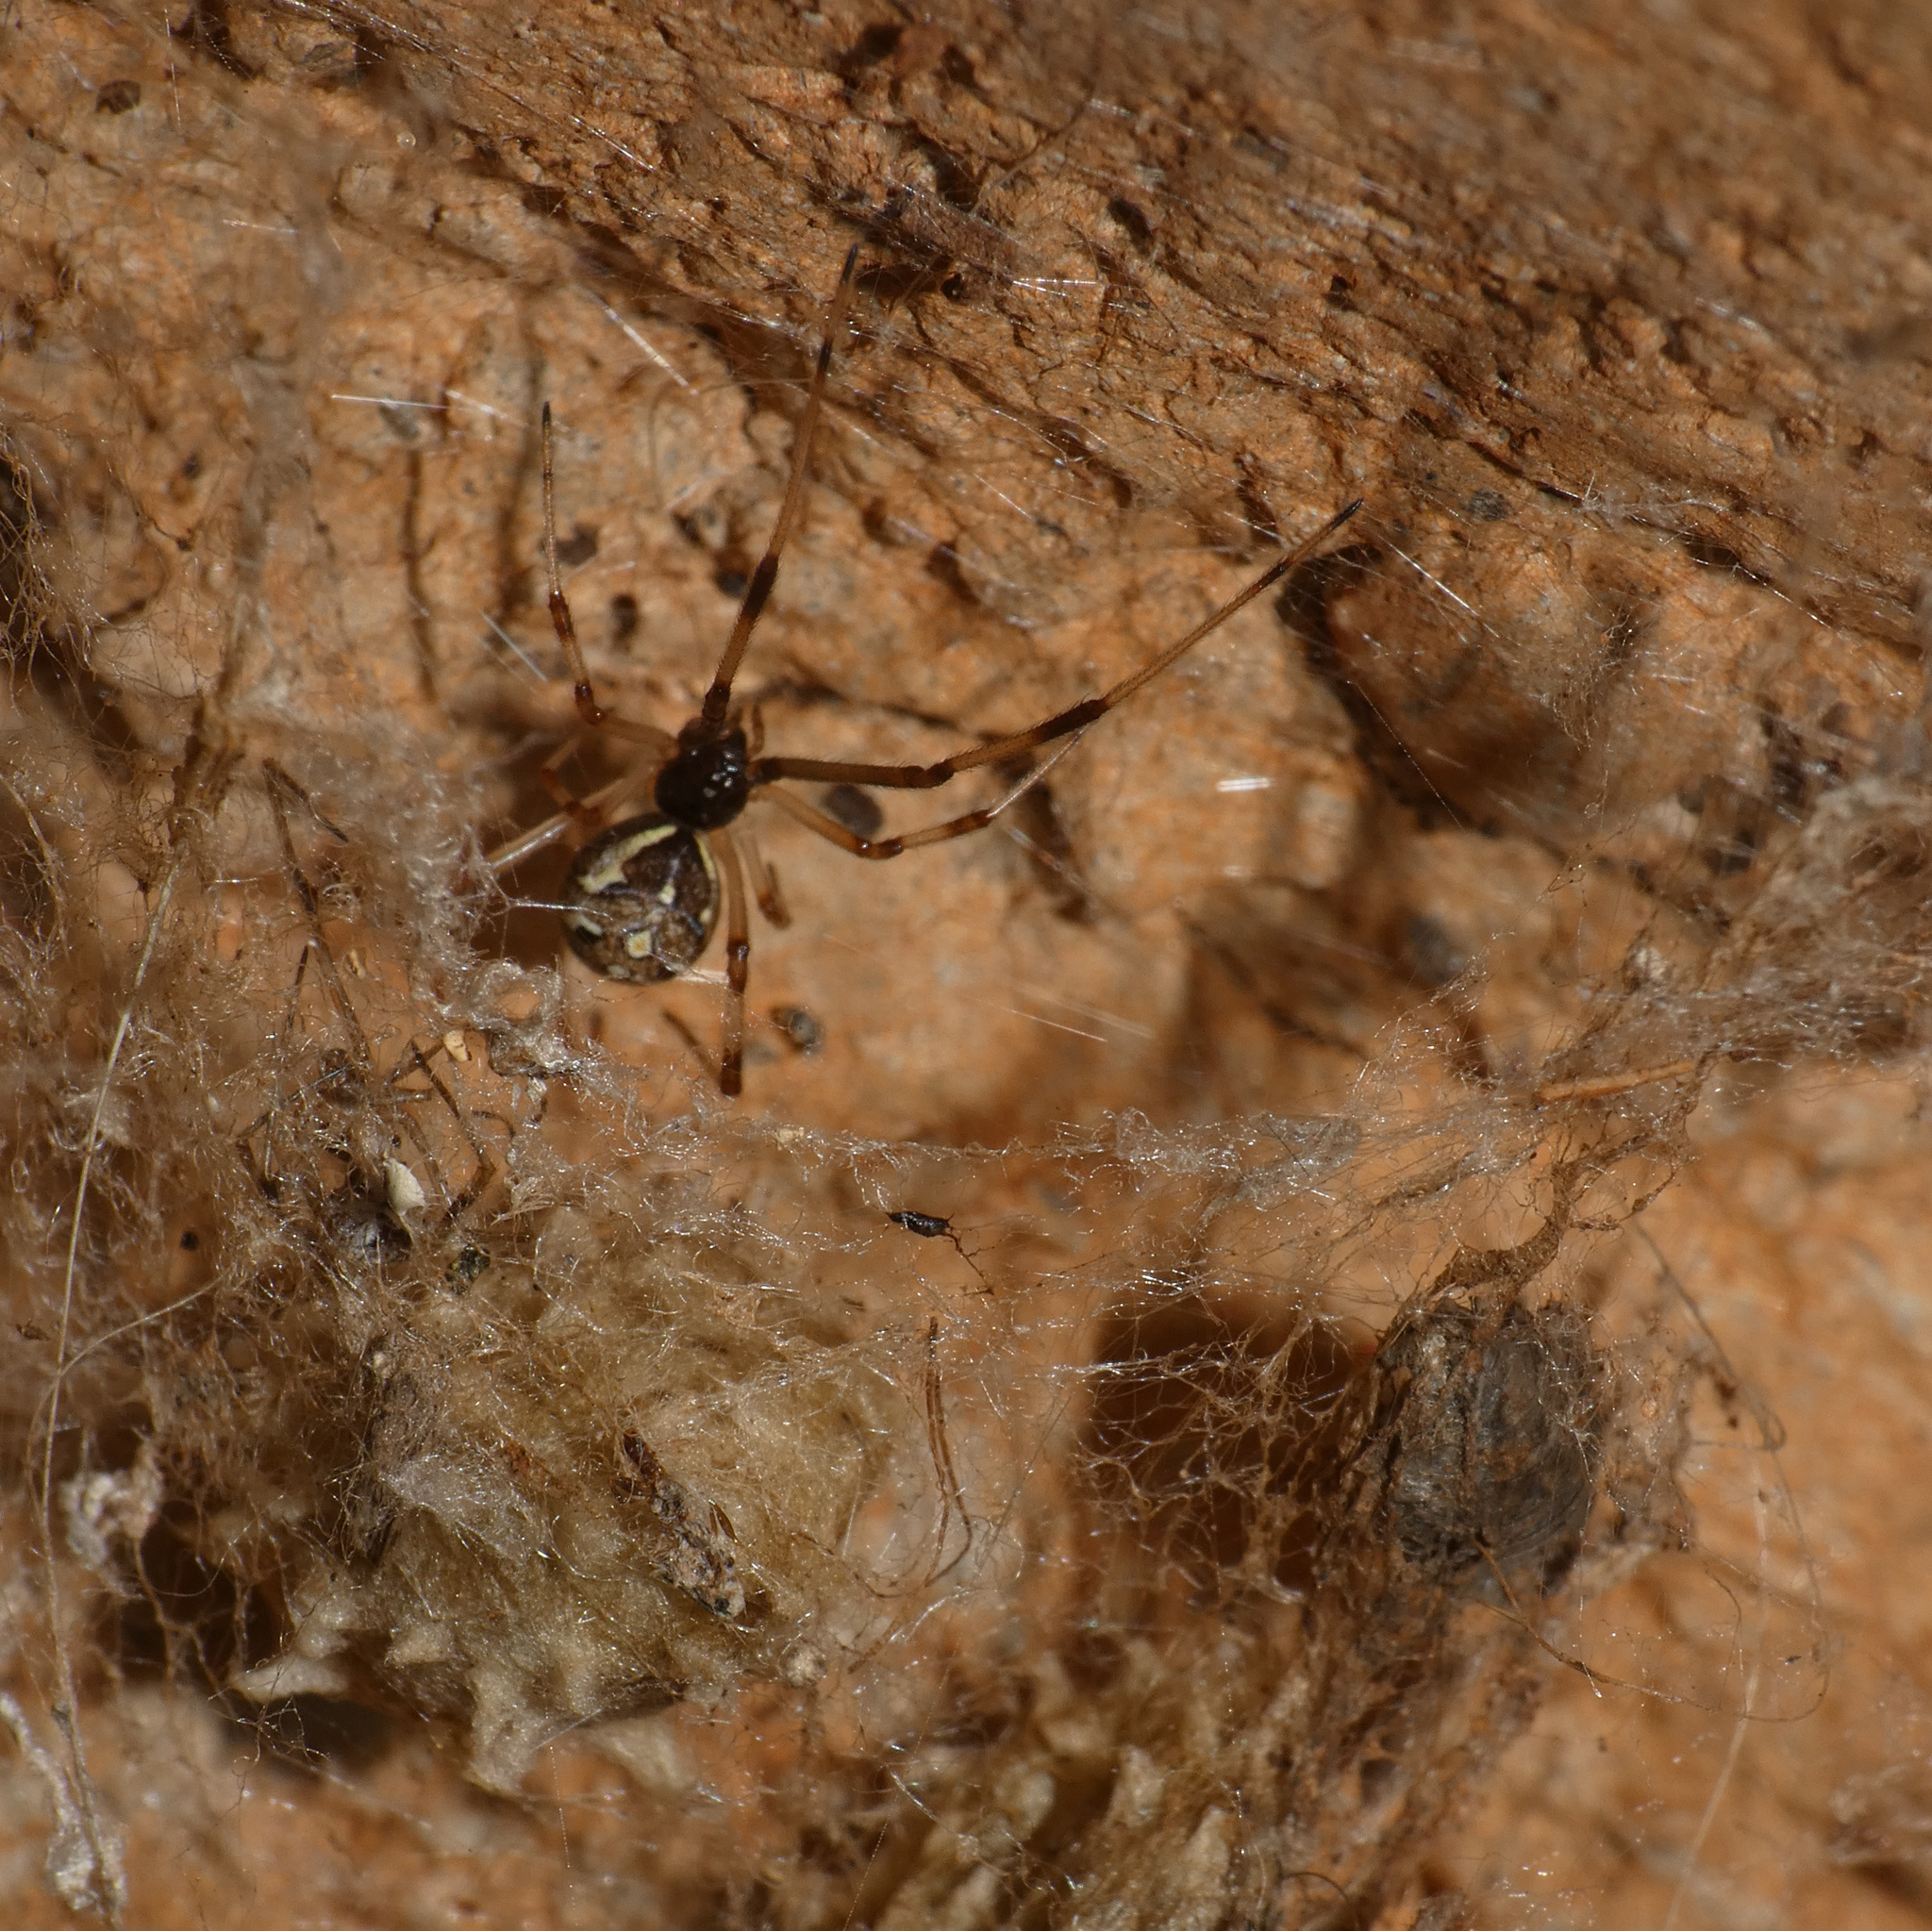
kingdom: Animalia
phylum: Arthropoda
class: Arachnida
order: Araneae
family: Theridiidae
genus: Latrodectus
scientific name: Latrodectus geometricus
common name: Brown widow spider
